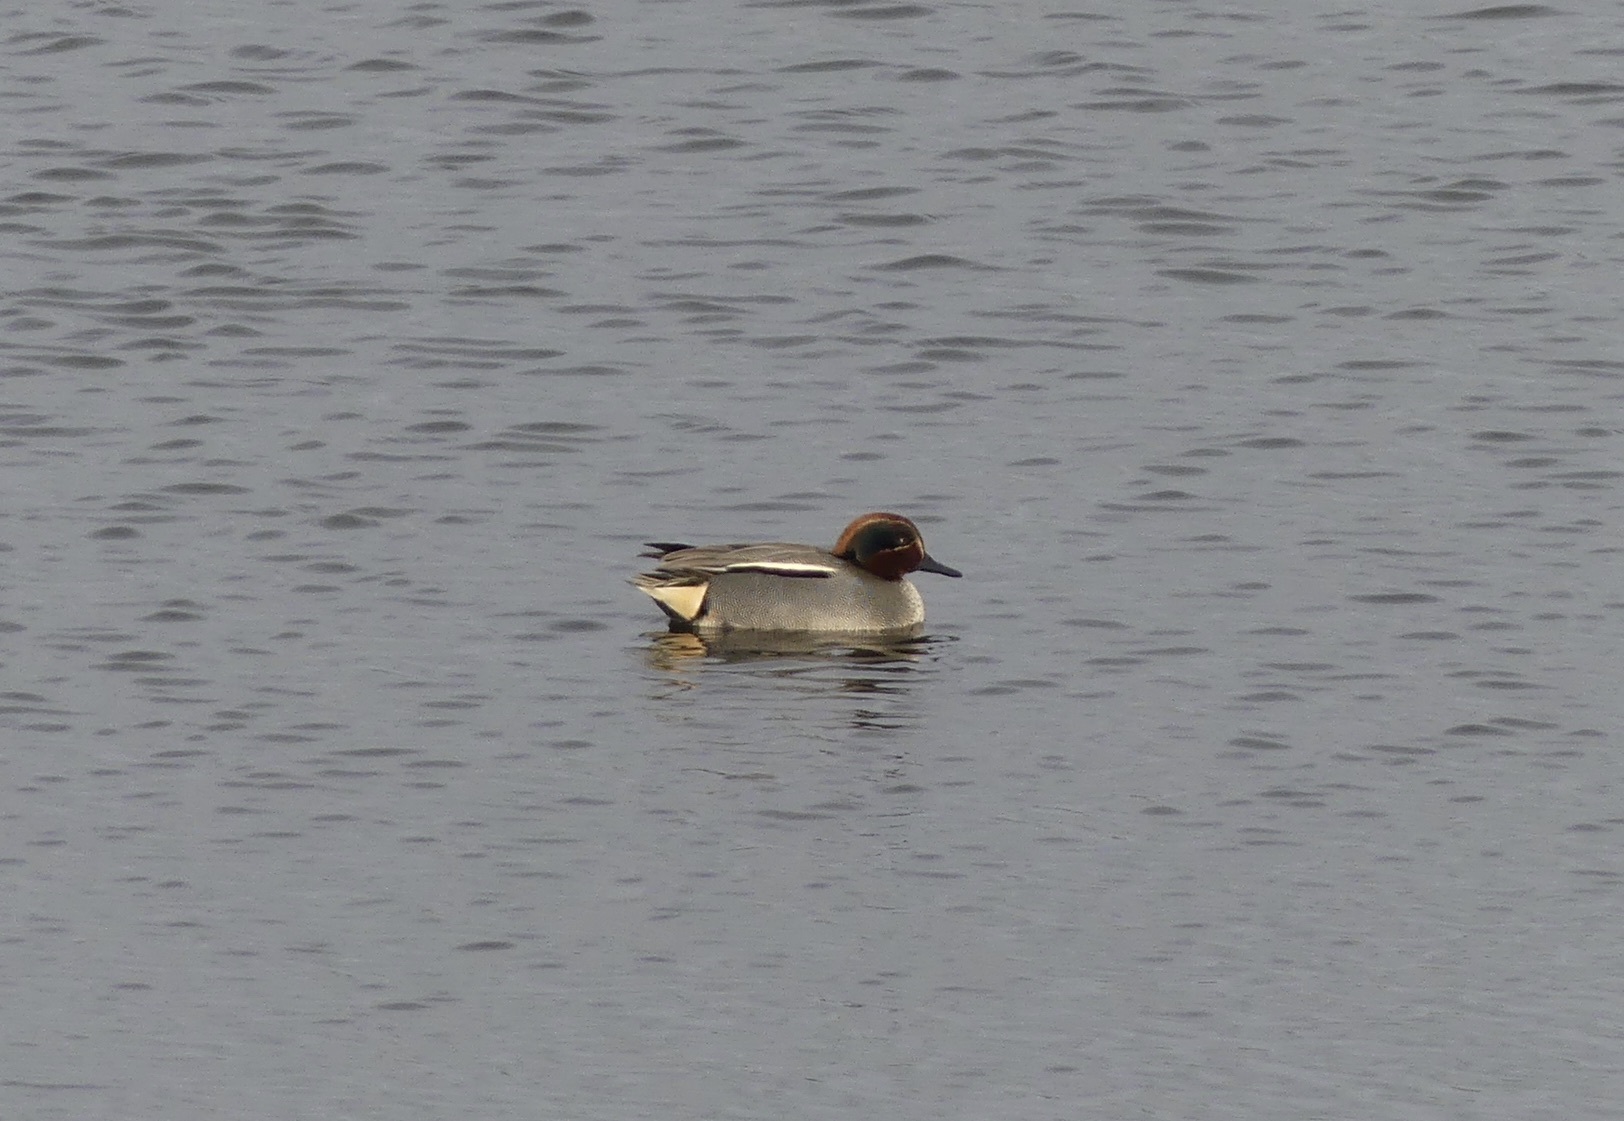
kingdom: Animalia
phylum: Chordata
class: Aves
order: Anseriformes
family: Anatidae
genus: Anas
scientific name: Anas crecca
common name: Eurasian teal
